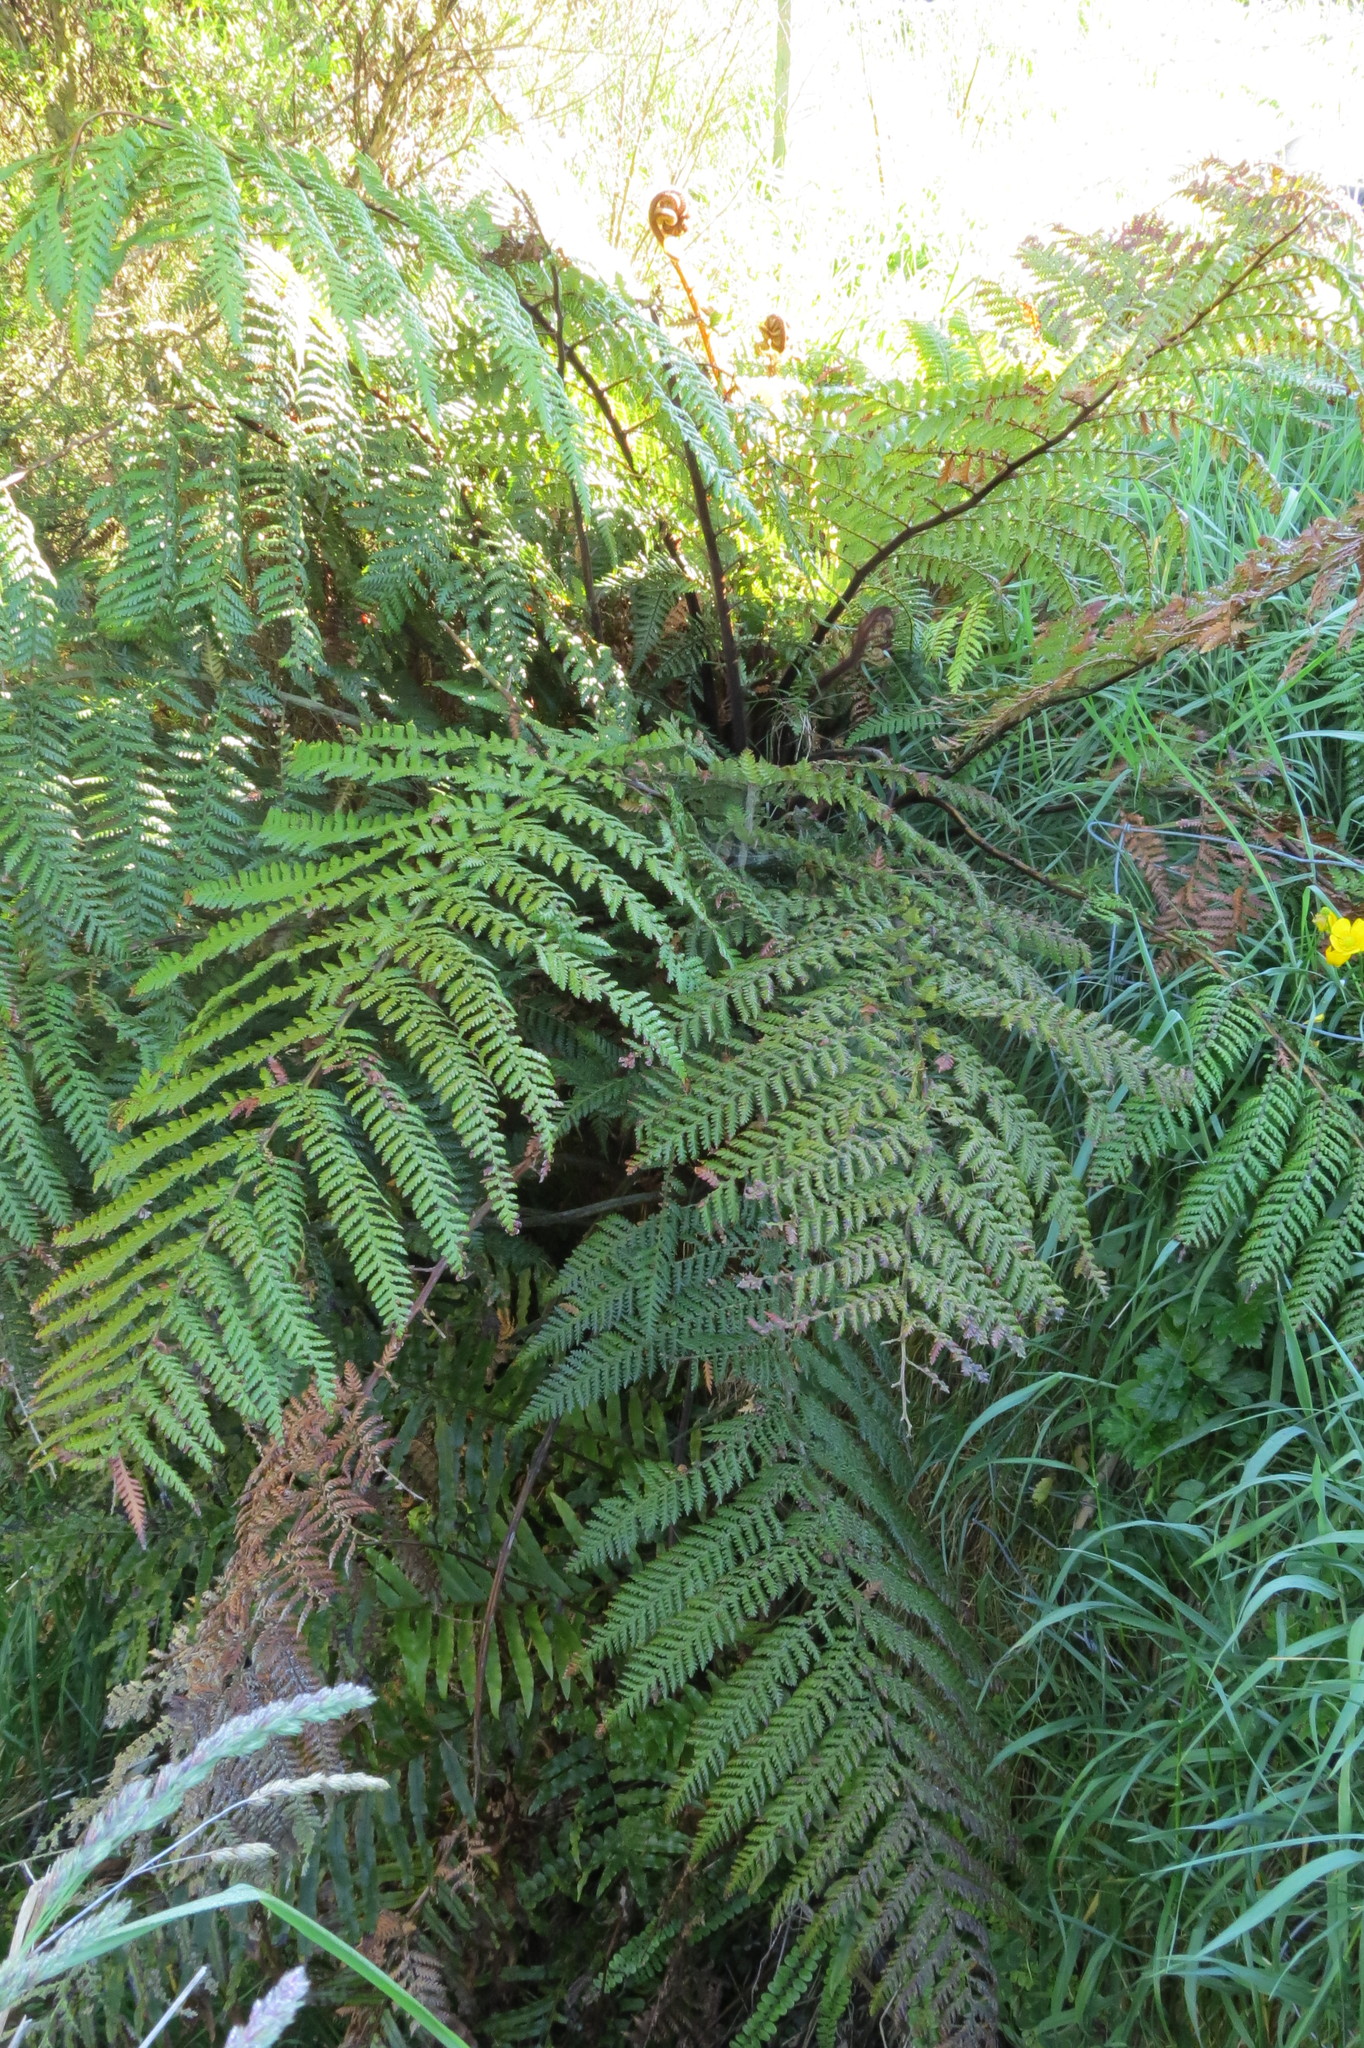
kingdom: Plantae
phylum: Tracheophyta
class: Polypodiopsida
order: Cyatheales
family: Dicksoniaceae
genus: Dicksonia
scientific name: Dicksonia squarrosa
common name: Hard treefern
